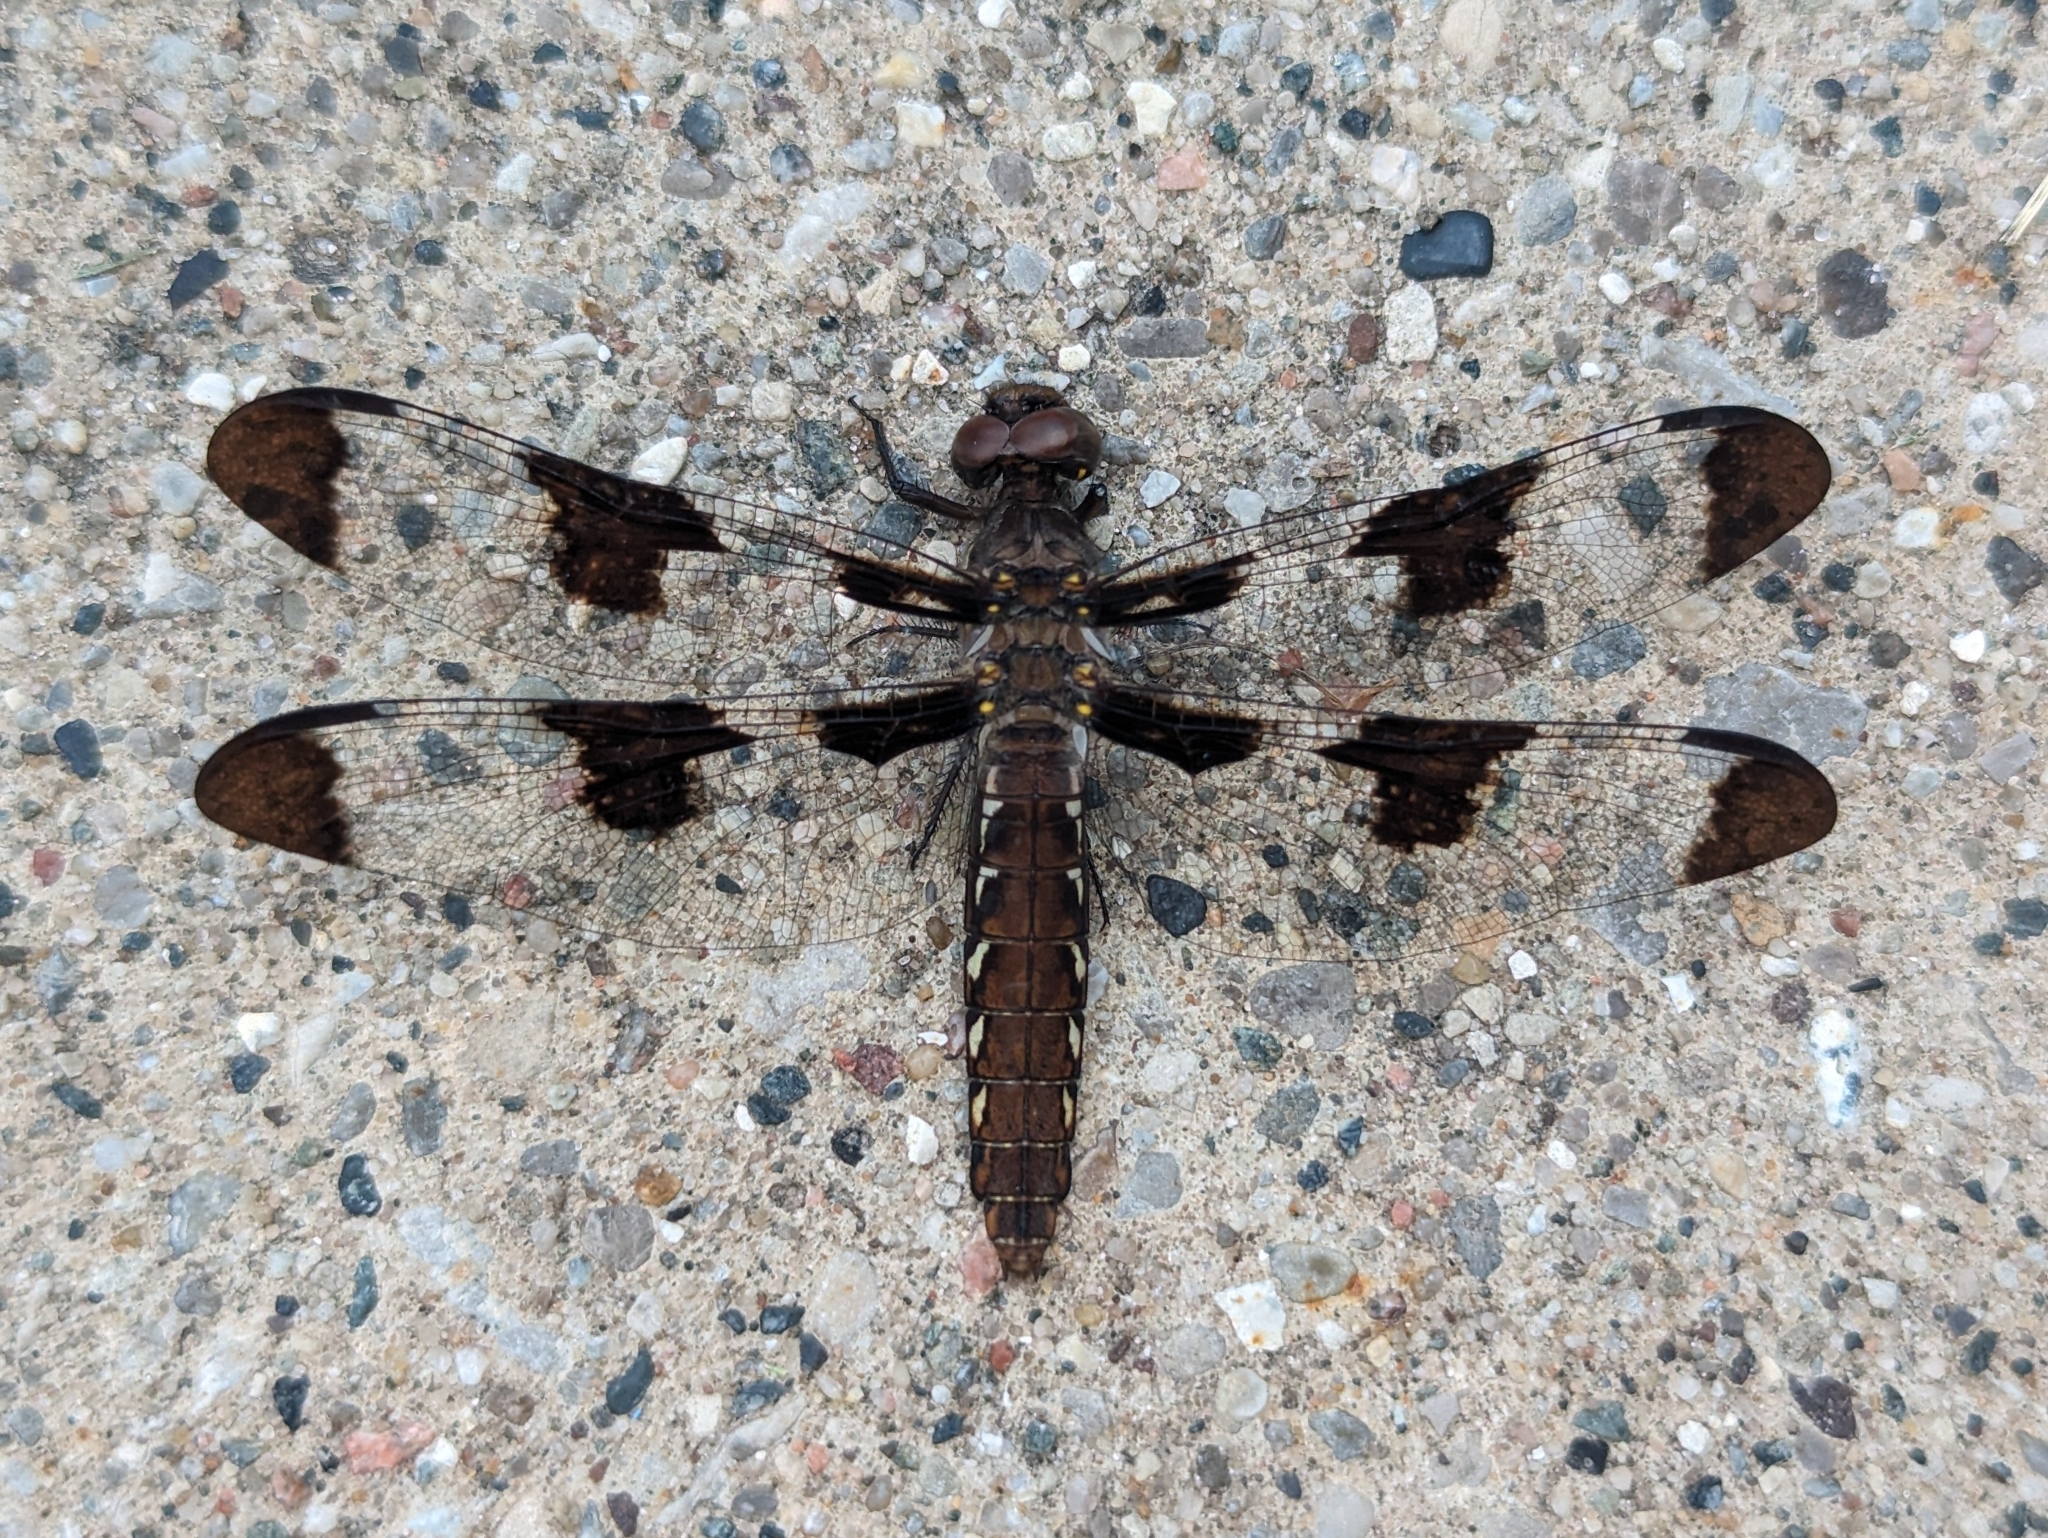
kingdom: Animalia
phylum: Arthropoda
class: Insecta
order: Odonata
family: Libellulidae
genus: Plathemis
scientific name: Plathemis lydia
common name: Common whitetail
